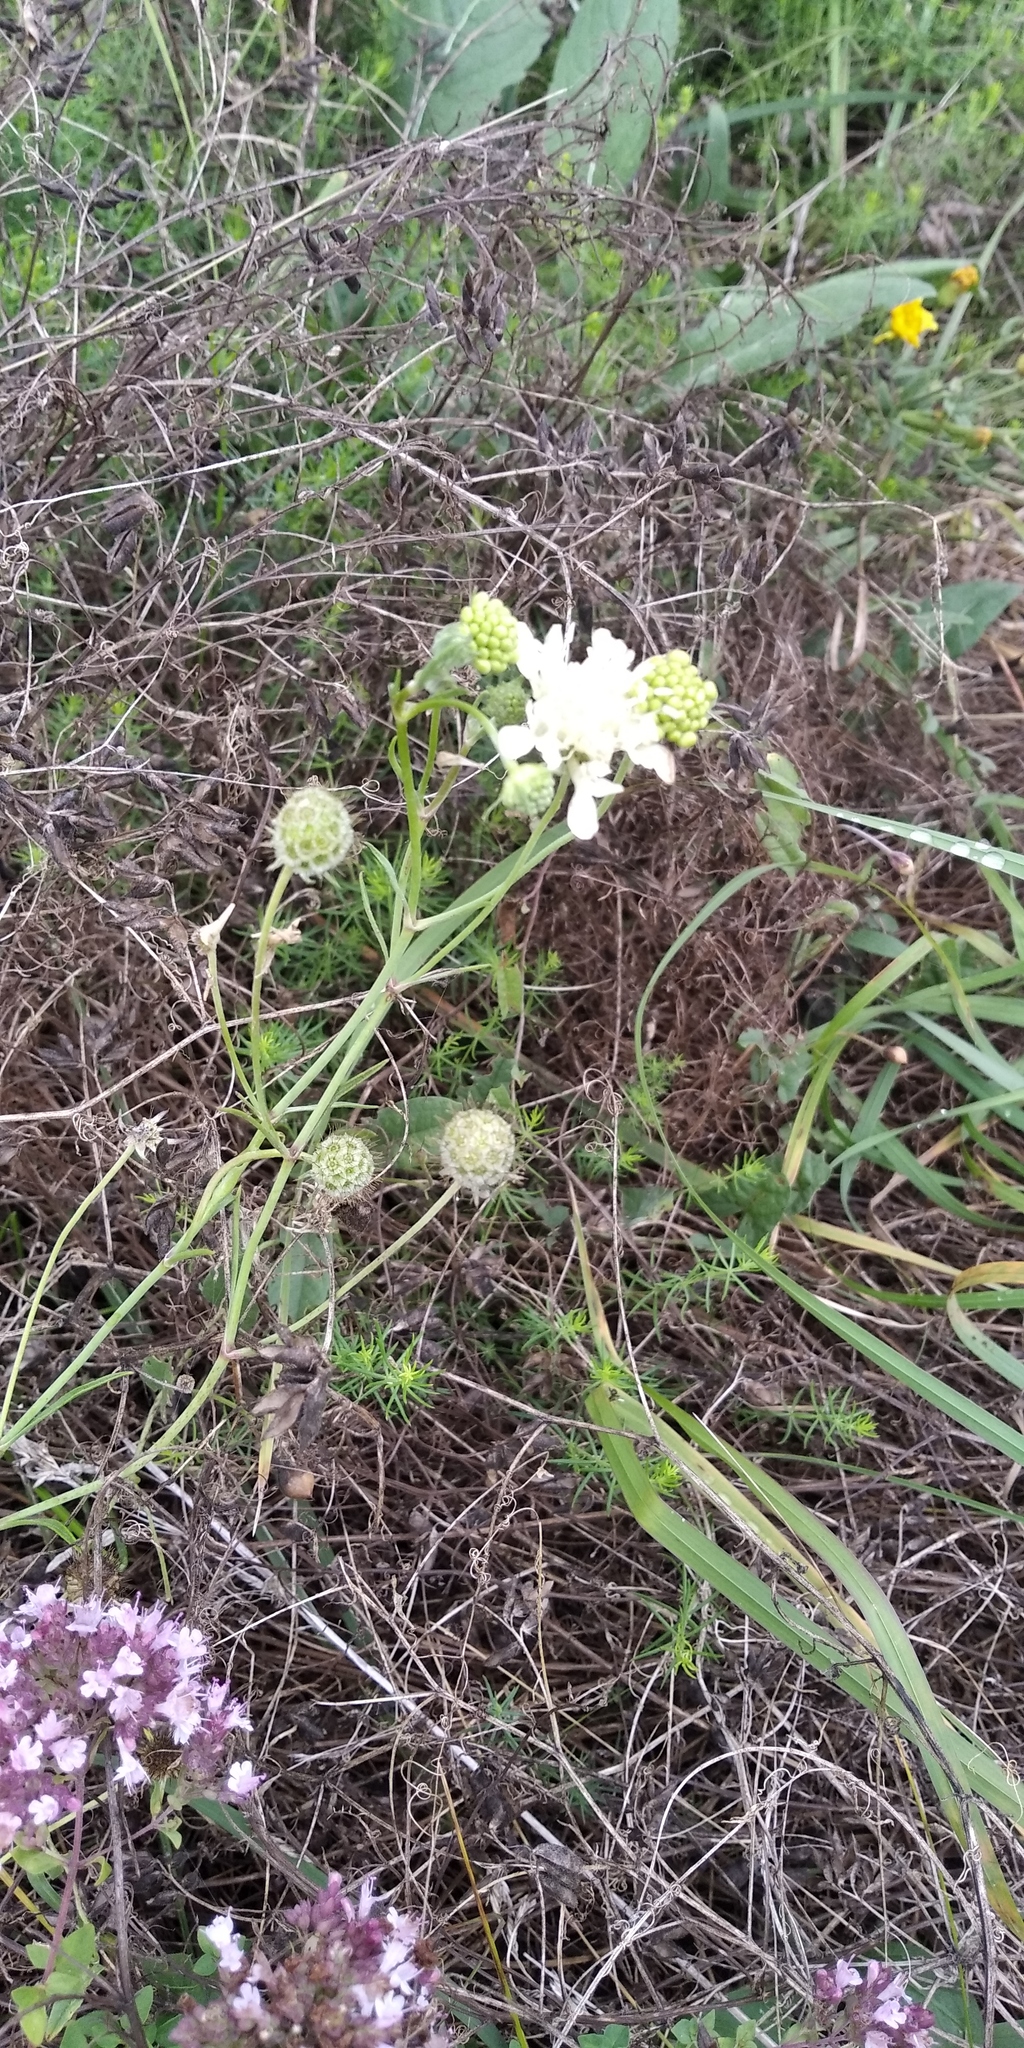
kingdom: Plantae
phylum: Tracheophyta
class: Magnoliopsida
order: Dipsacales
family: Caprifoliaceae
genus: Scabiosa
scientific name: Scabiosa ochroleuca
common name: Cream pincushions
